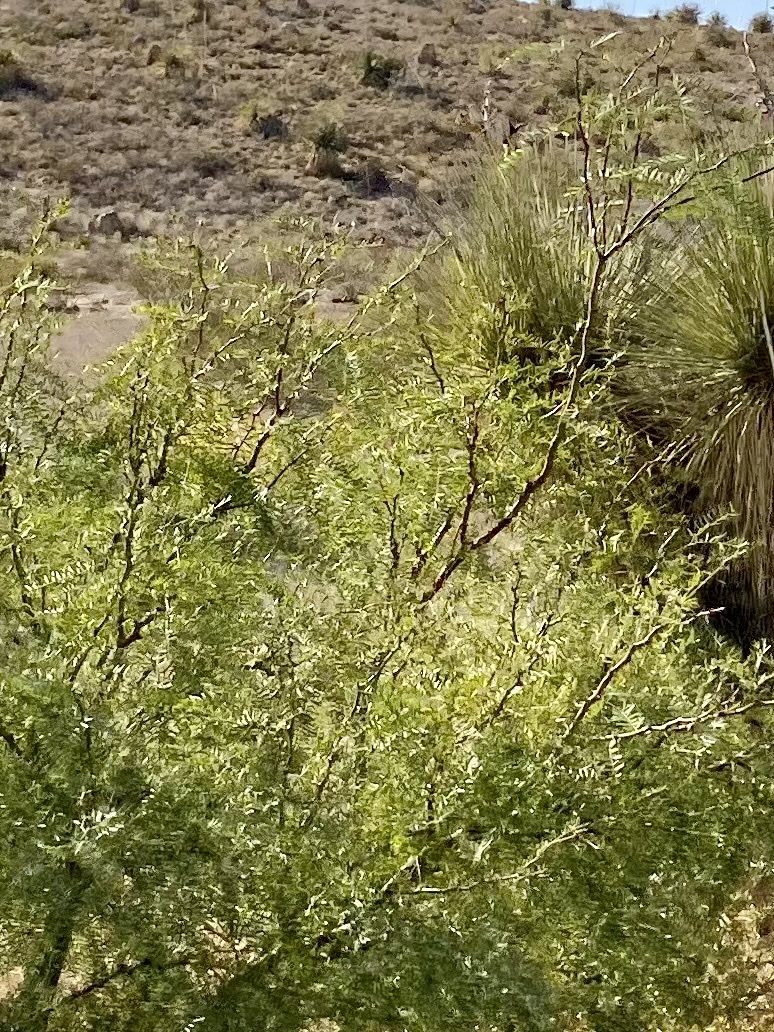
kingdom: Plantae
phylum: Tracheophyta
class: Magnoliopsida
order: Fabales
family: Fabaceae
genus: Prosopis
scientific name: Prosopis glandulosa
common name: Honey mesquite
